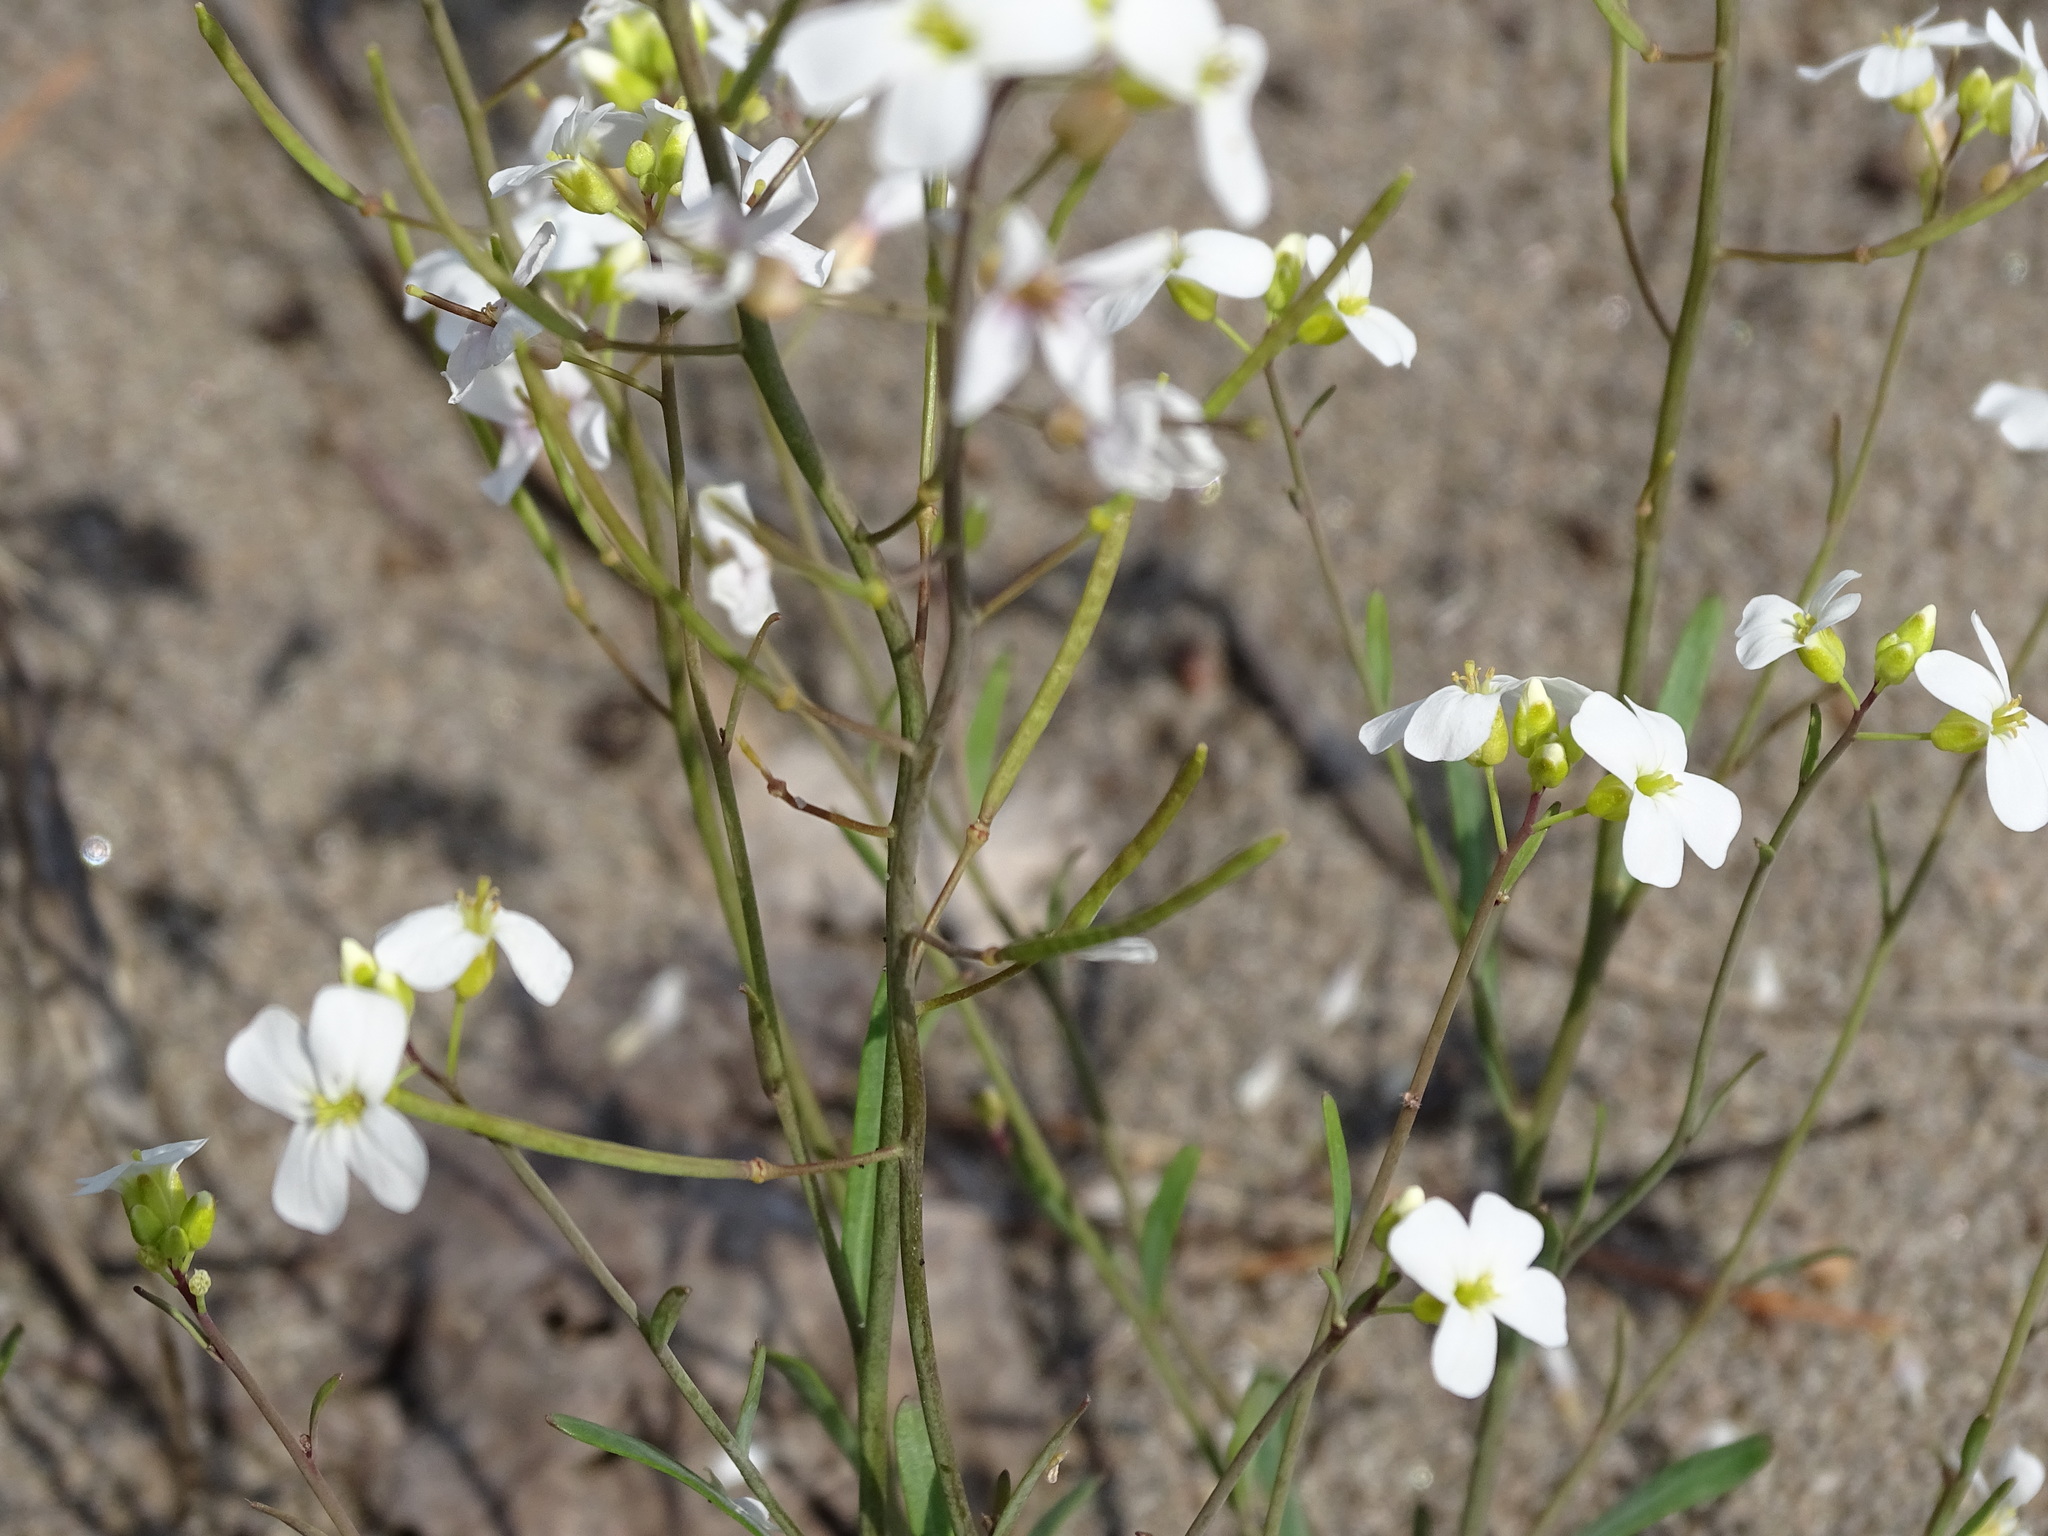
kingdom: Plantae
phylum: Tracheophyta
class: Magnoliopsida
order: Brassicales
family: Brassicaceae
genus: Arabidopsis
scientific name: Arabidopsis lyrata
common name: Lyrate rockcress
